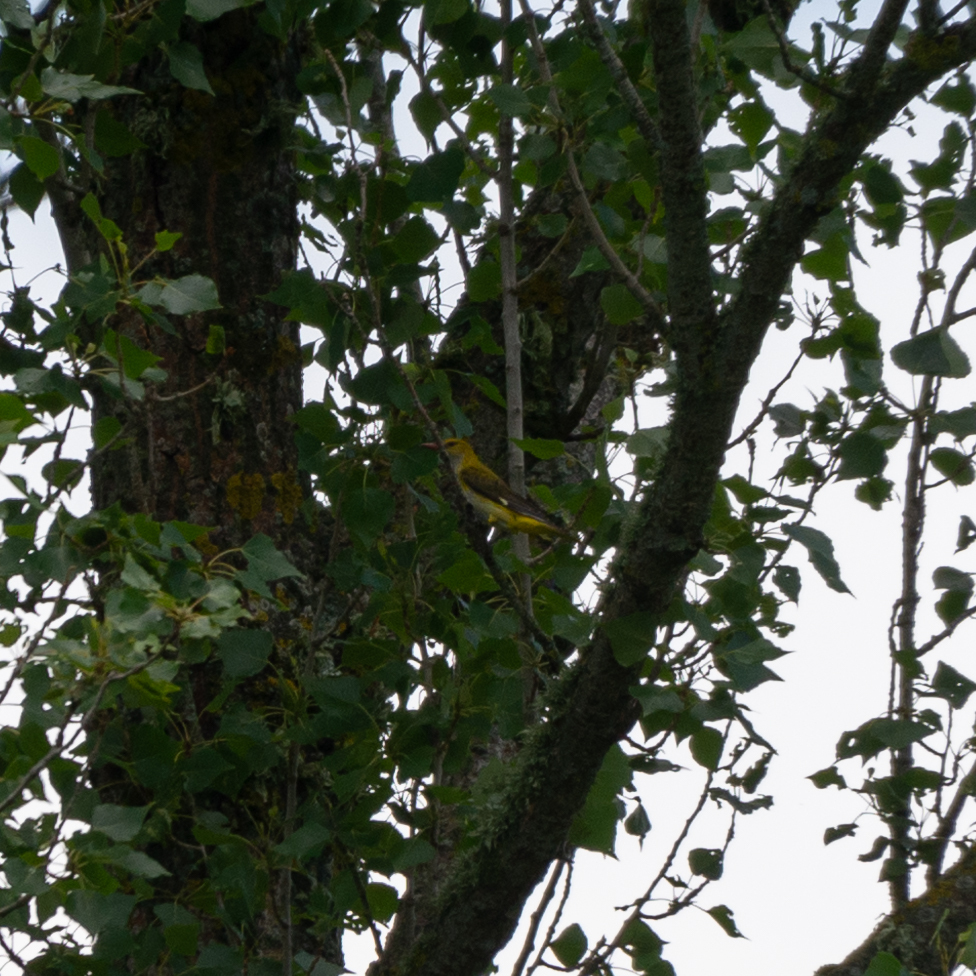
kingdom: Animalia
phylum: Chordata
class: Aves
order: Passeriformes
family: Oriolidae
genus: Oriolus
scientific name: Oriolus oriolus
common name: Eurasian golden oriole
